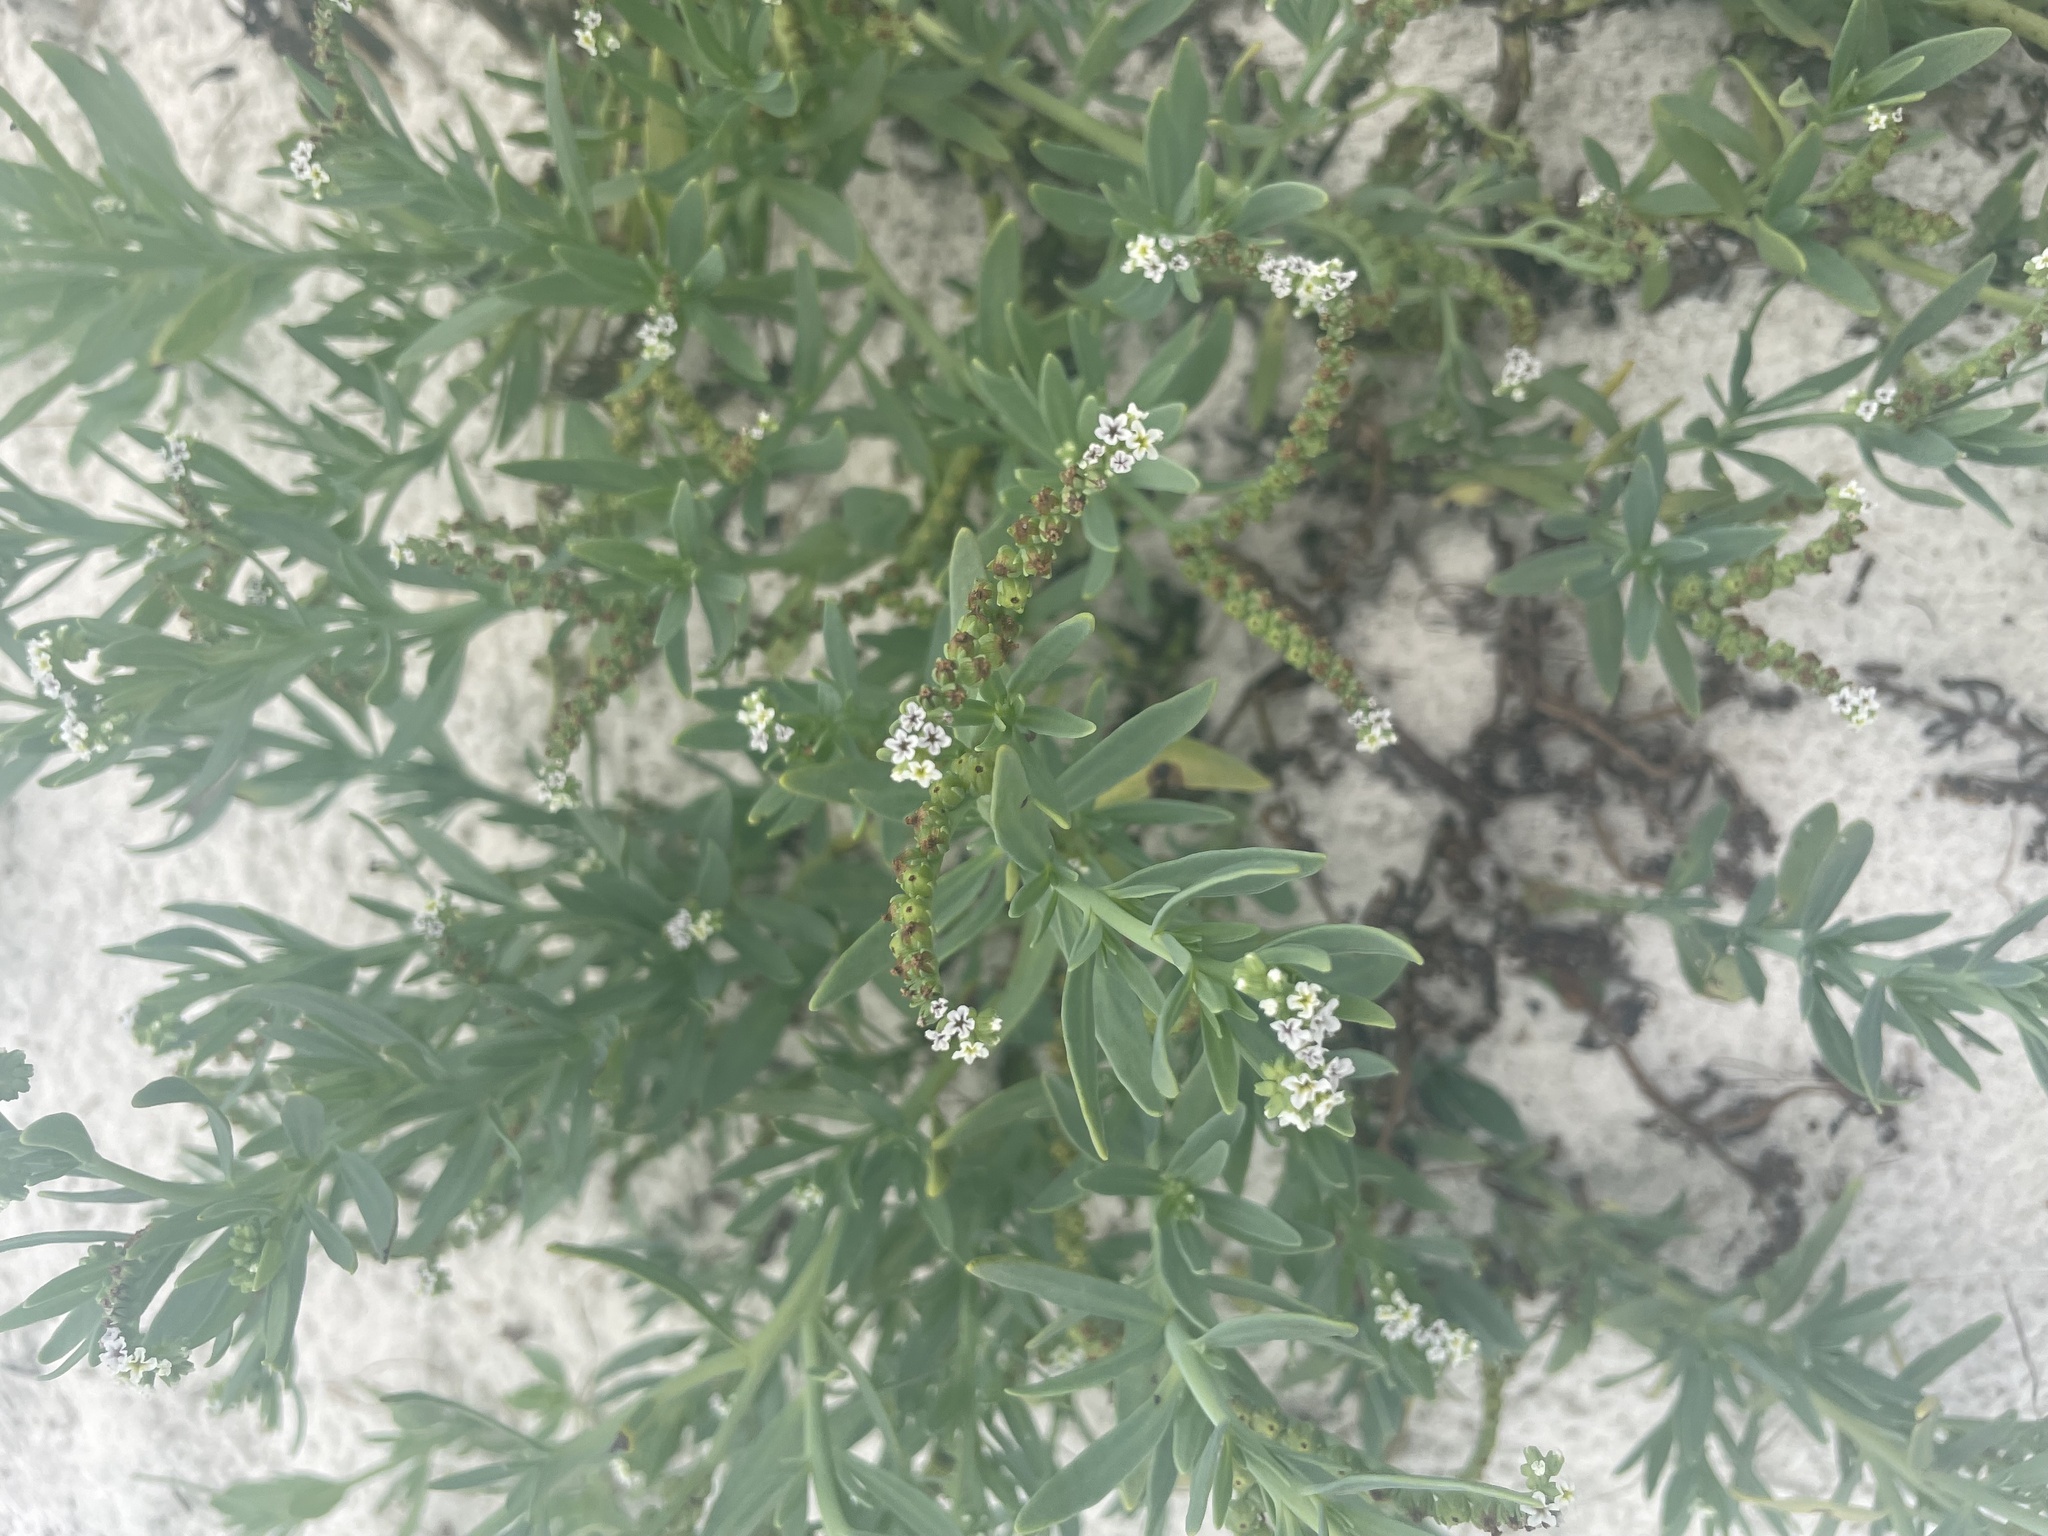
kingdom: Plantae
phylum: Tracheophyta
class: Magnoliopsida
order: Boraginales
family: Heliotropiaceae
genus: Heliotropium
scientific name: Heliotropium curassavicum
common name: Seaside heliotrope
